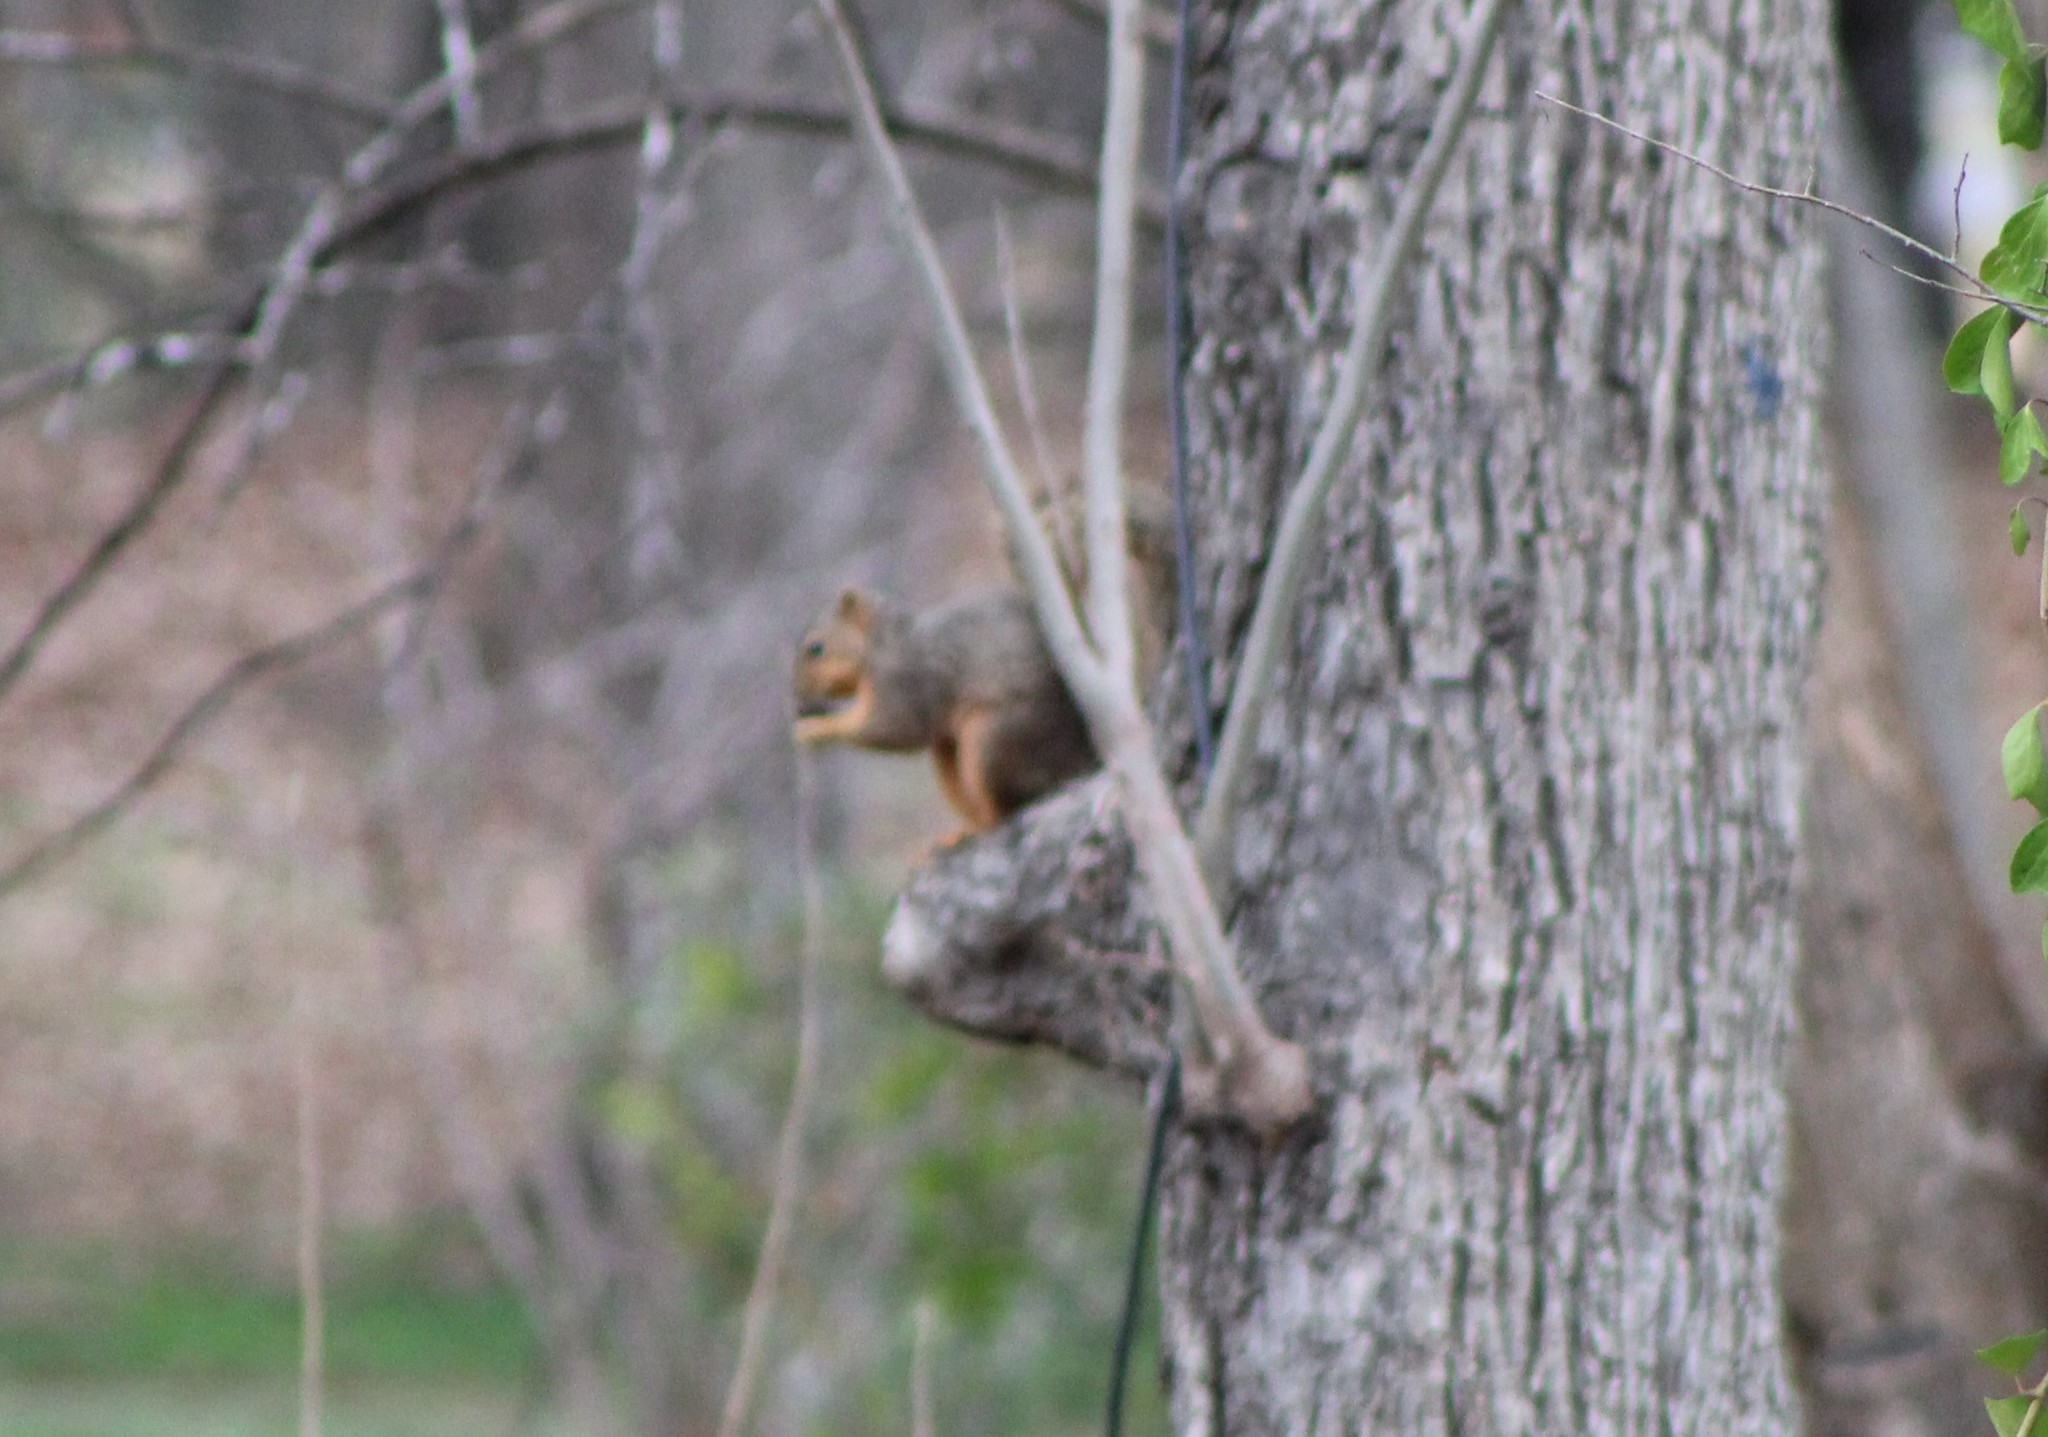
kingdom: Animalia
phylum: Chordata
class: Mammalia
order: Rodentia
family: Sciuridae
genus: Sciurus
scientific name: Sciurus niger
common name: Fox squirrel
